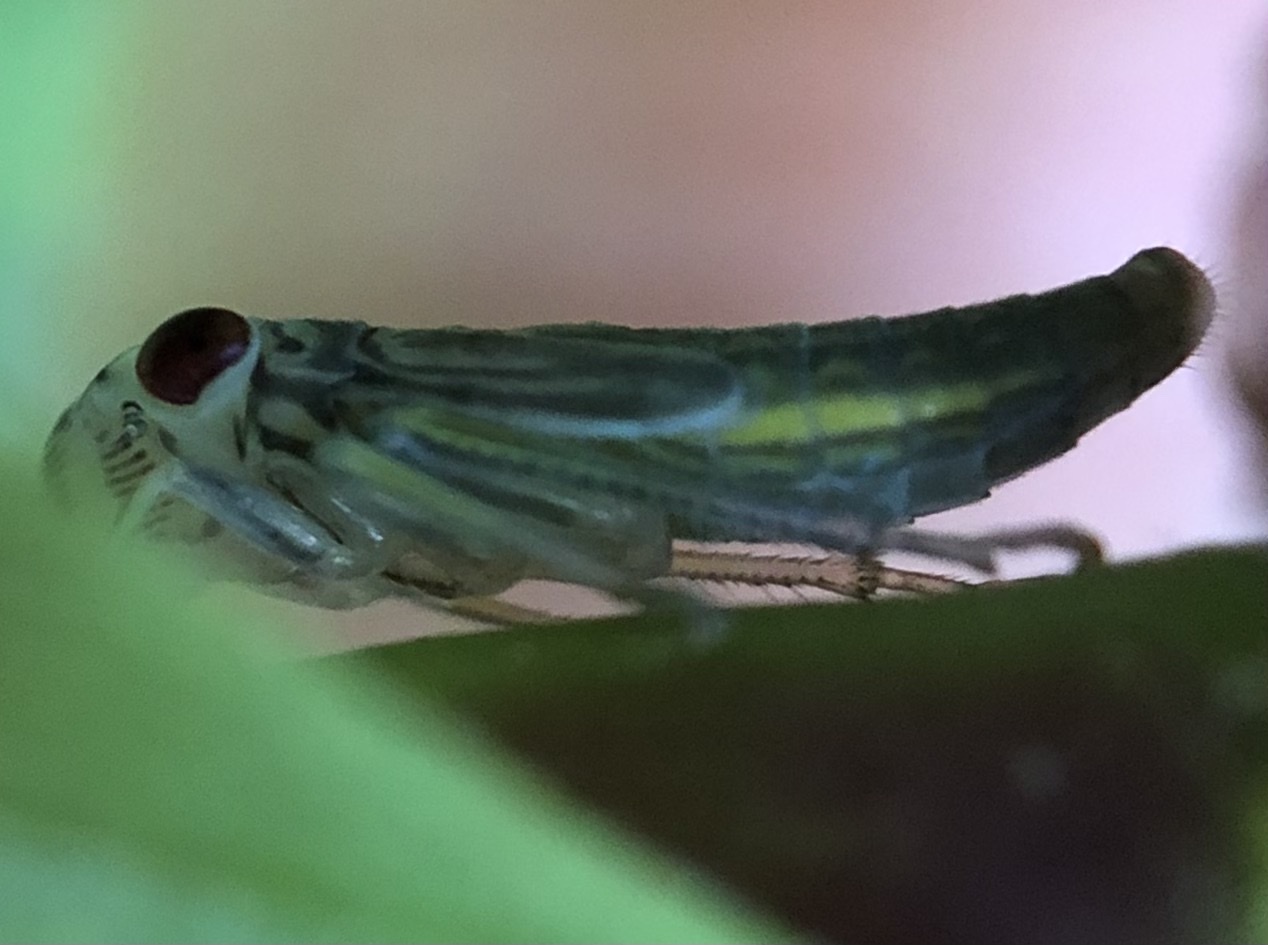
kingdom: Animalia
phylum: Arthropoda
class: Insecta
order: Hemiptera
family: Cicadellidae
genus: Oncometopia
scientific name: Oncometopia orbona
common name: Broad-headed sharpshooter
